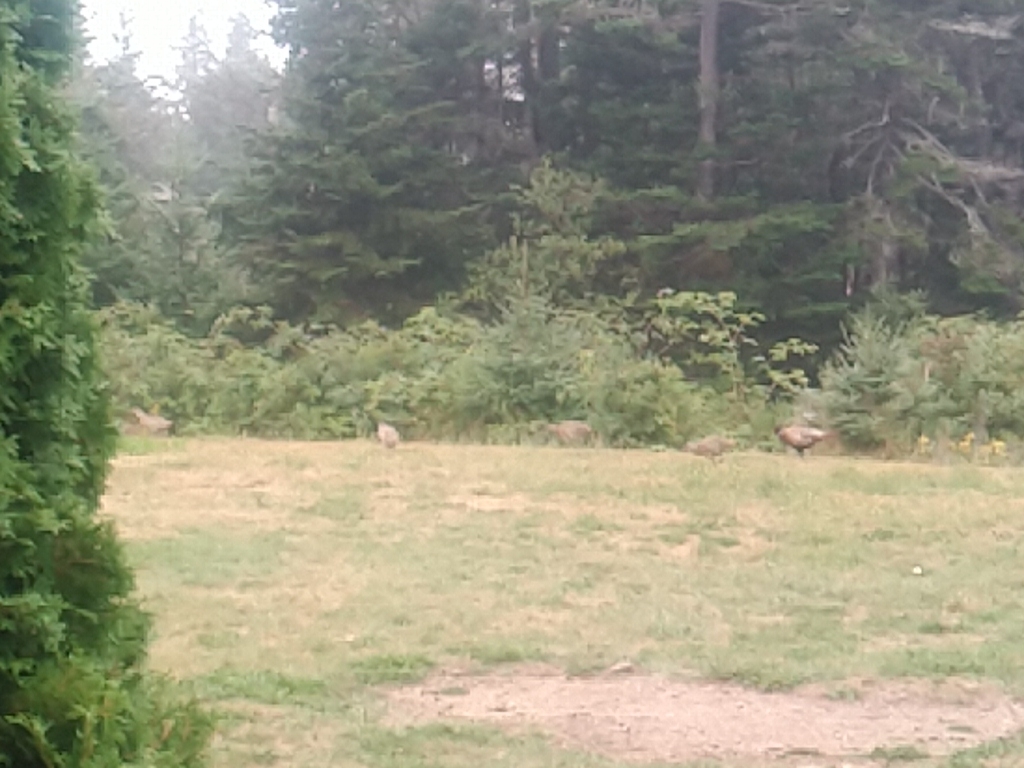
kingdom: Animalia
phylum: Chordata
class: Aves
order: Galliformes
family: Phasianidae
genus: Phasianus
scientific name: Phasianus colchicus
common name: Common pheasant
